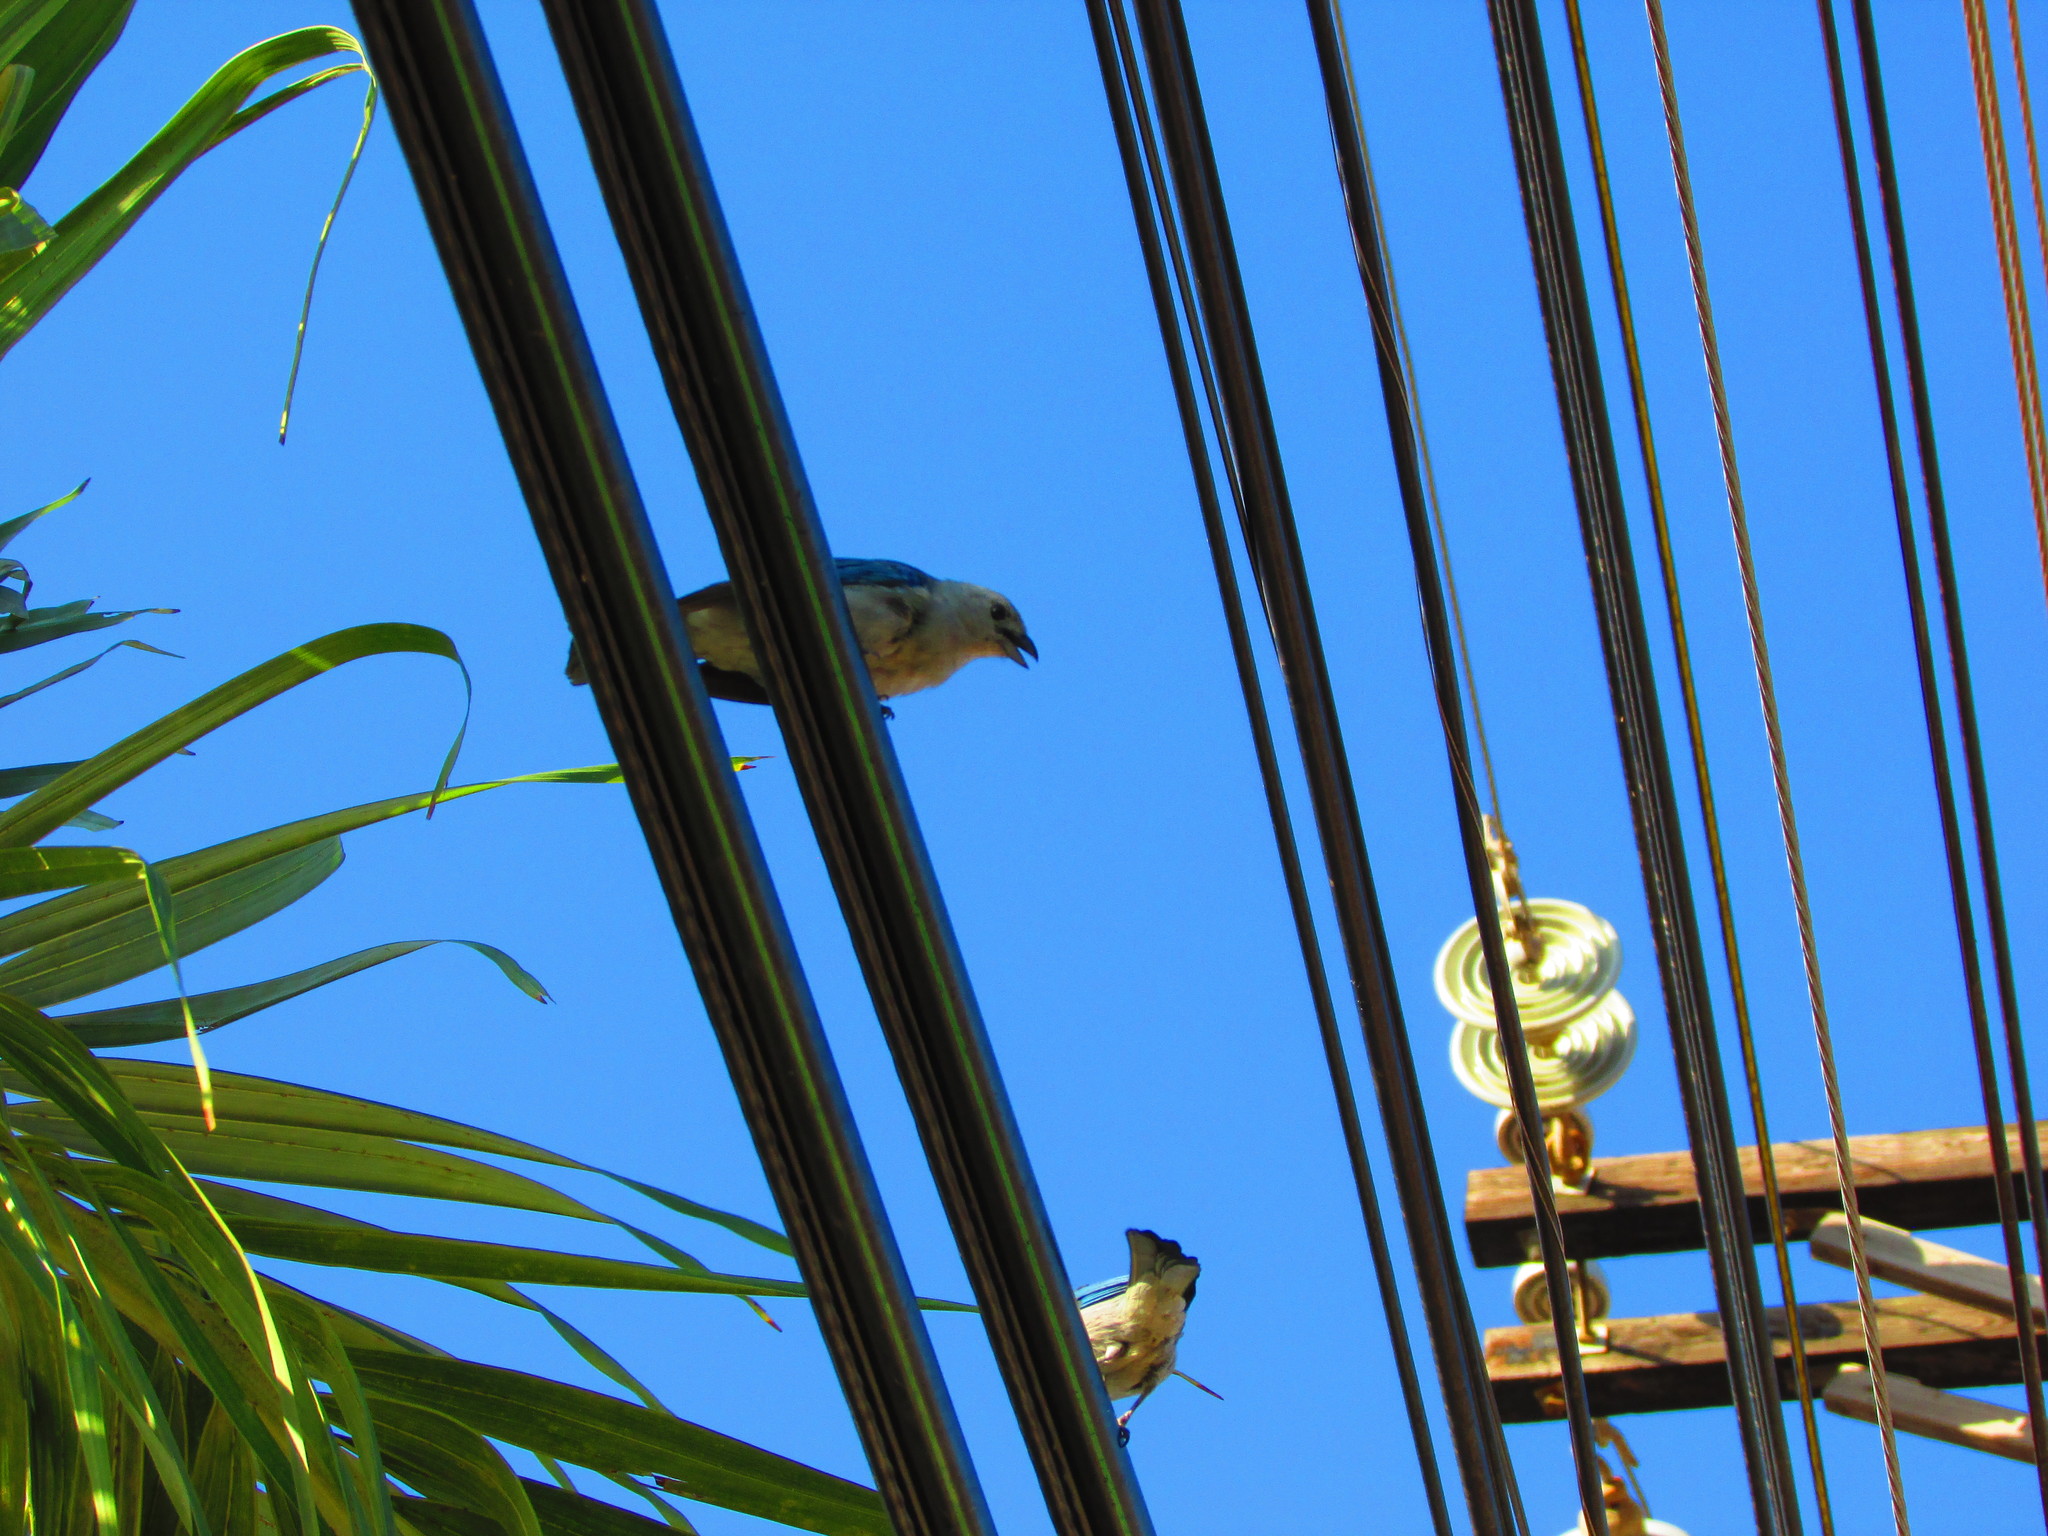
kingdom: Animalia
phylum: Chordata
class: Aves
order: Passeriformes
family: Thraupidae
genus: Thraupis
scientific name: Thraupis episcopus
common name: Blue-grey tanager
